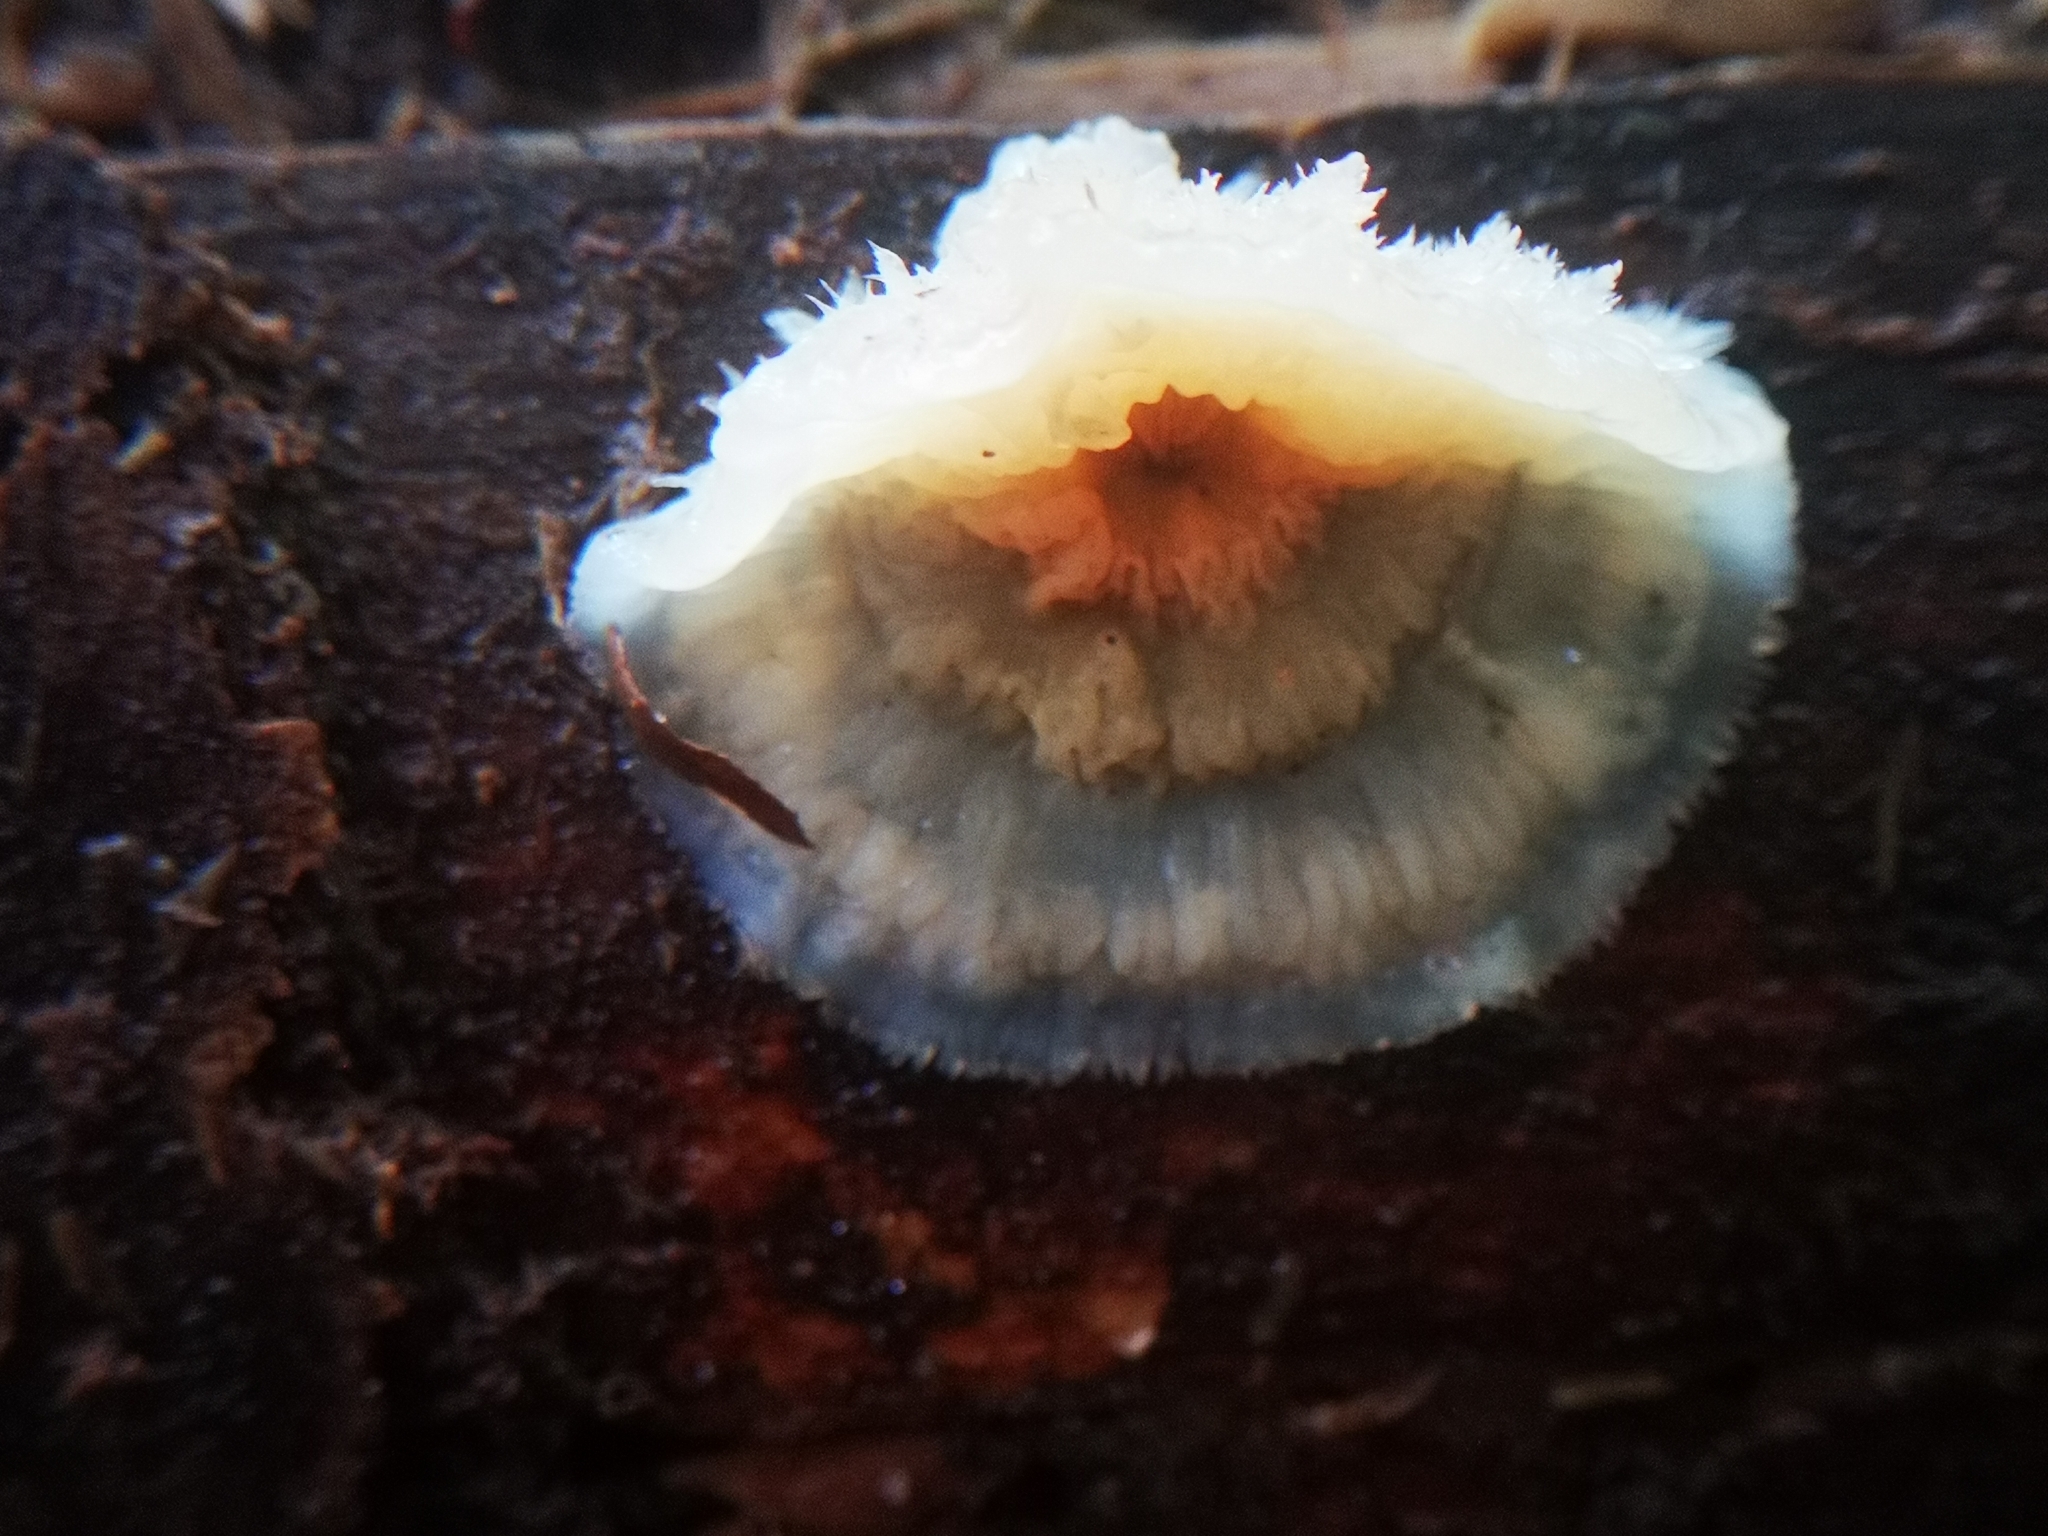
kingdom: Fungi
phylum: Basidiomycota
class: Agaricomycetes
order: Polyporales
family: Meruliaceae
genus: Phlebia
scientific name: Phlebia tremellosa
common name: Jelly rot
